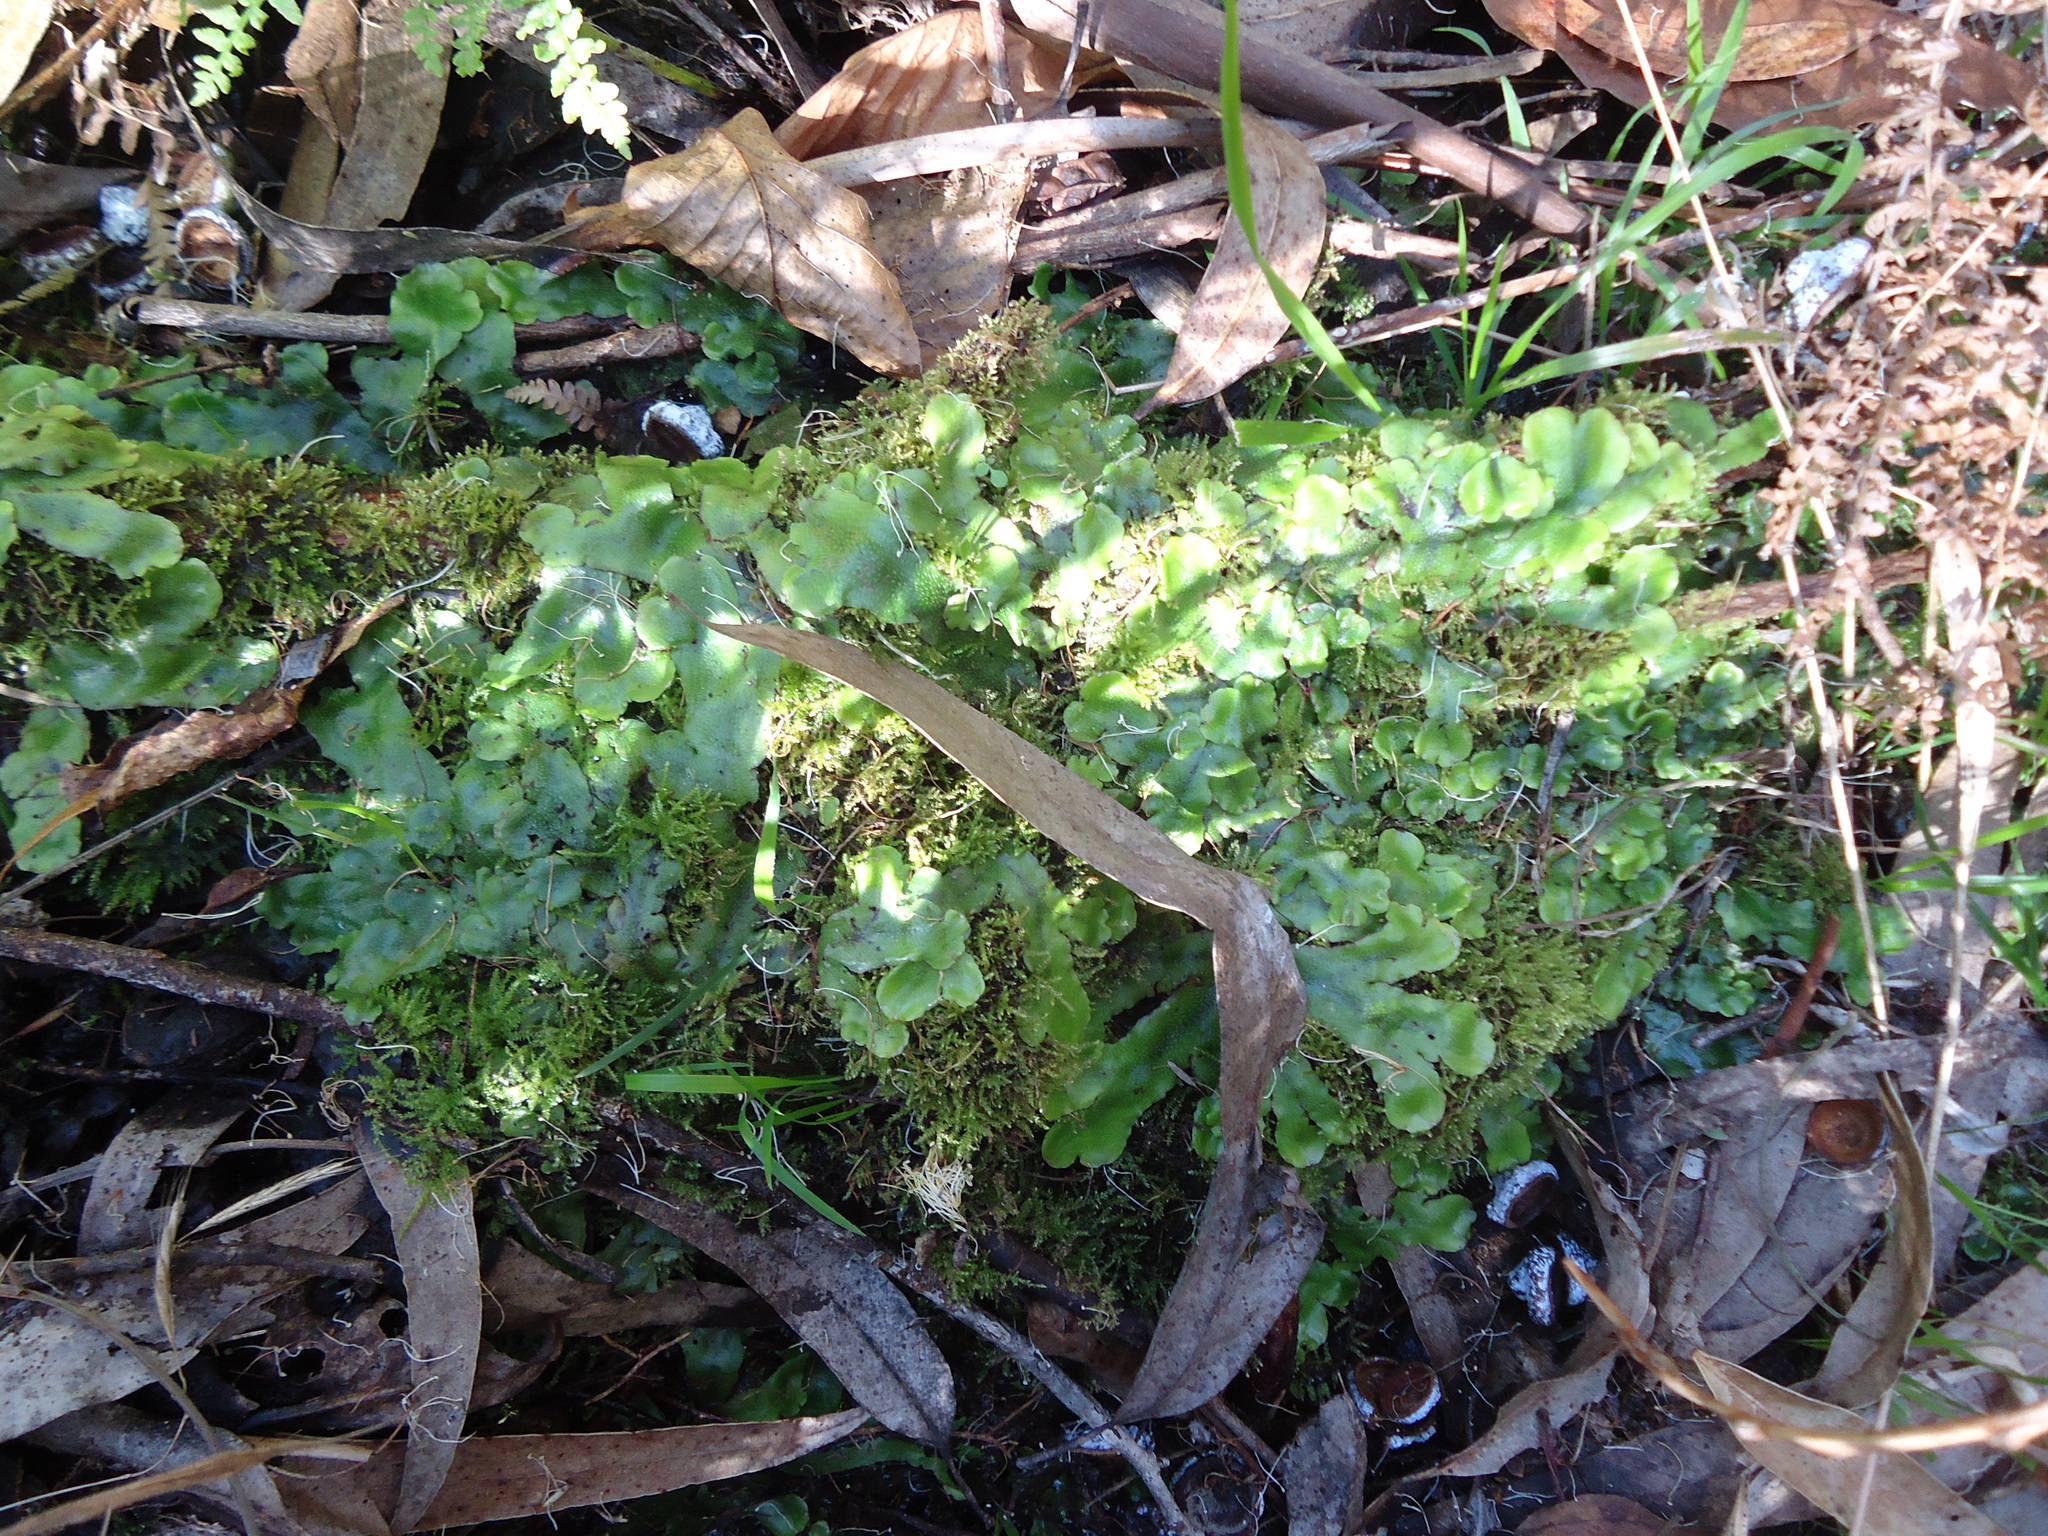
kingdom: Plantae
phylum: Marchantiophyta
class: Marchantiopsida
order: Marchantiales
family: Conocephalaceae
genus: Conocephalum
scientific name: Conocephalum conicum
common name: Great scented liverwort
